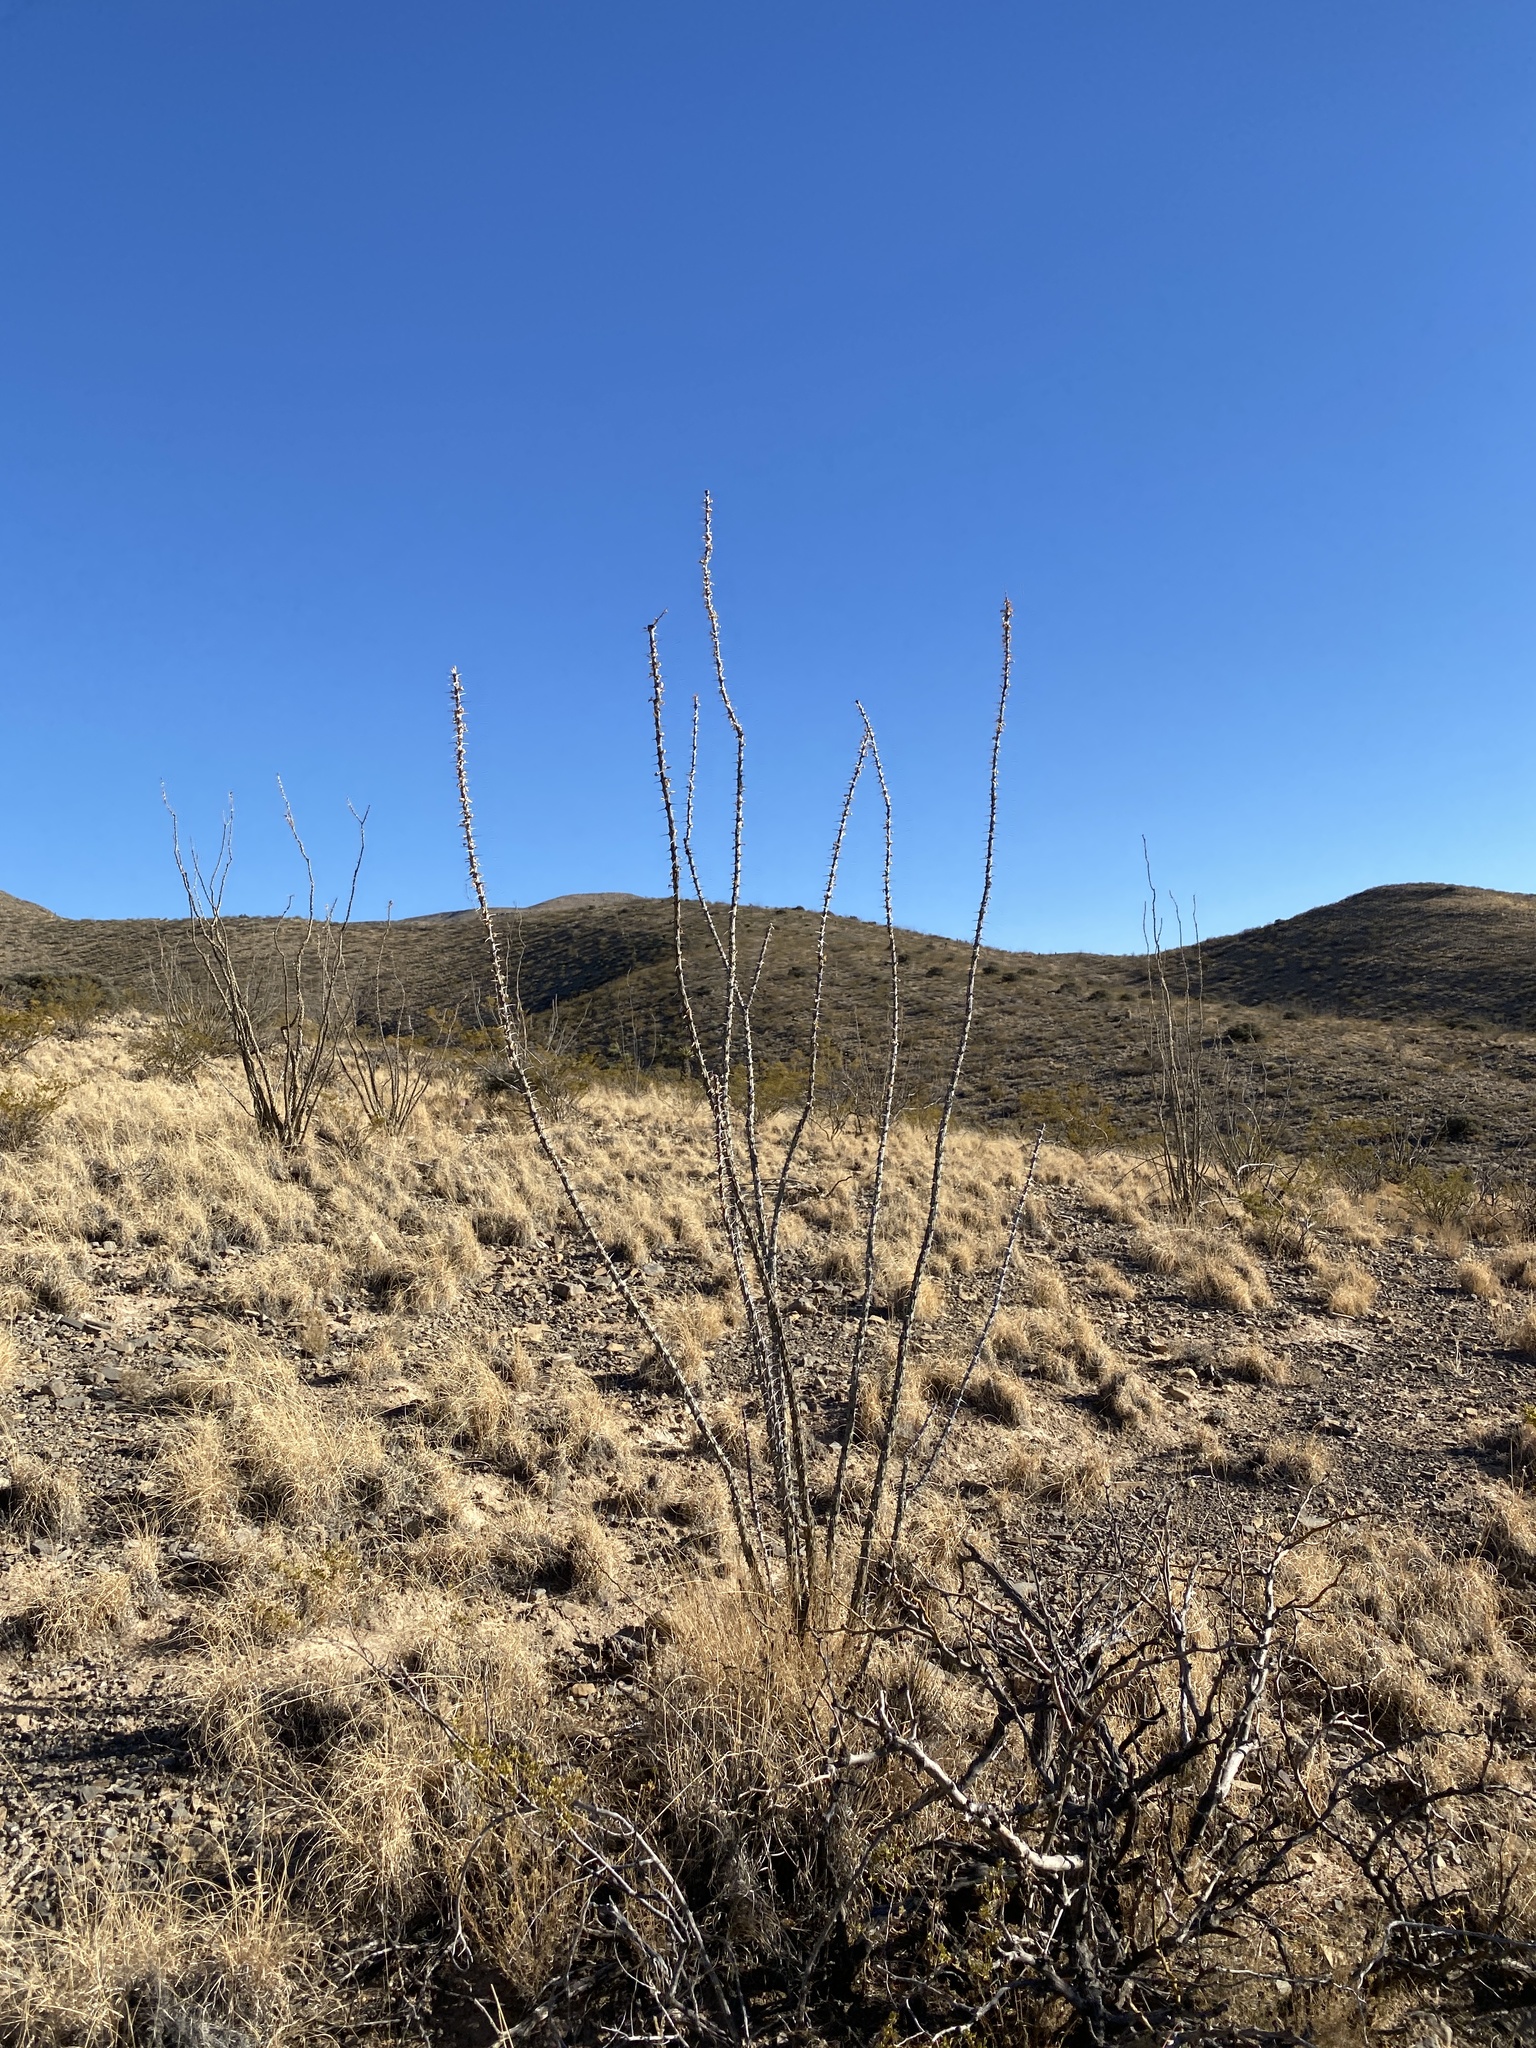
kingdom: Plantae
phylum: Tracheophyta
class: Magnoliopsida
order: Ericales
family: Fouquieriaceae
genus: Fouquieria
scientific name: Fouquieria splendens
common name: Vine-cactus
